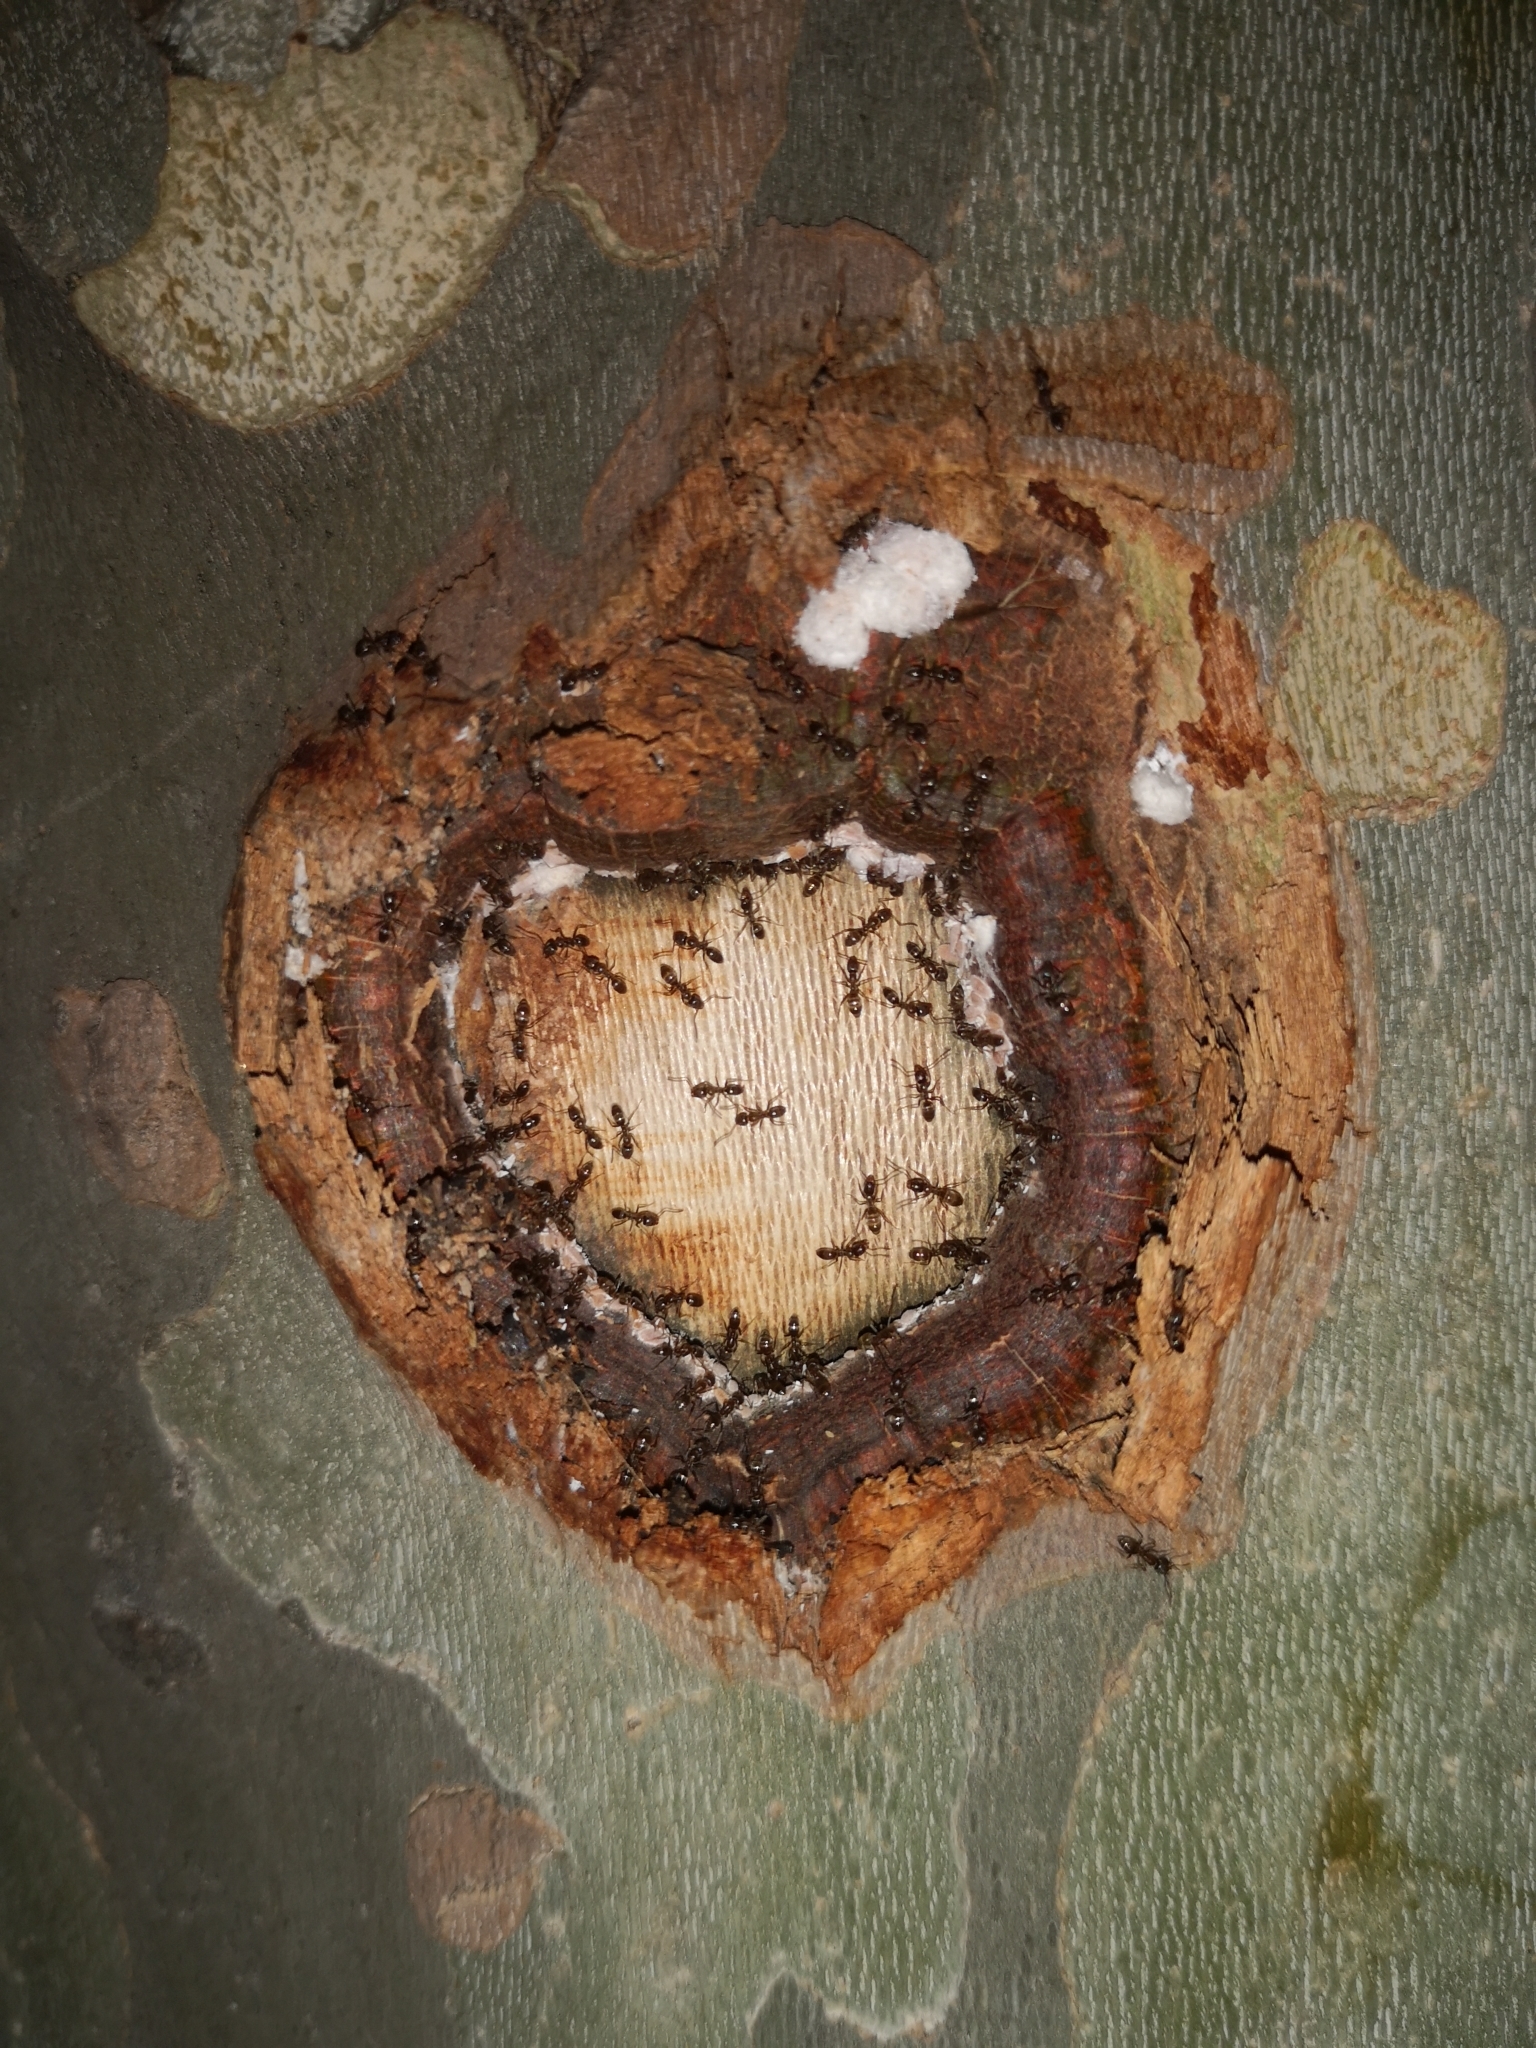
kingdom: Animalia
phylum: Arthropoda
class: Insecta
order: Hymenoptera
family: Formicidae
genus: Linepithema
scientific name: Linepithema humile
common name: Argentine ant
